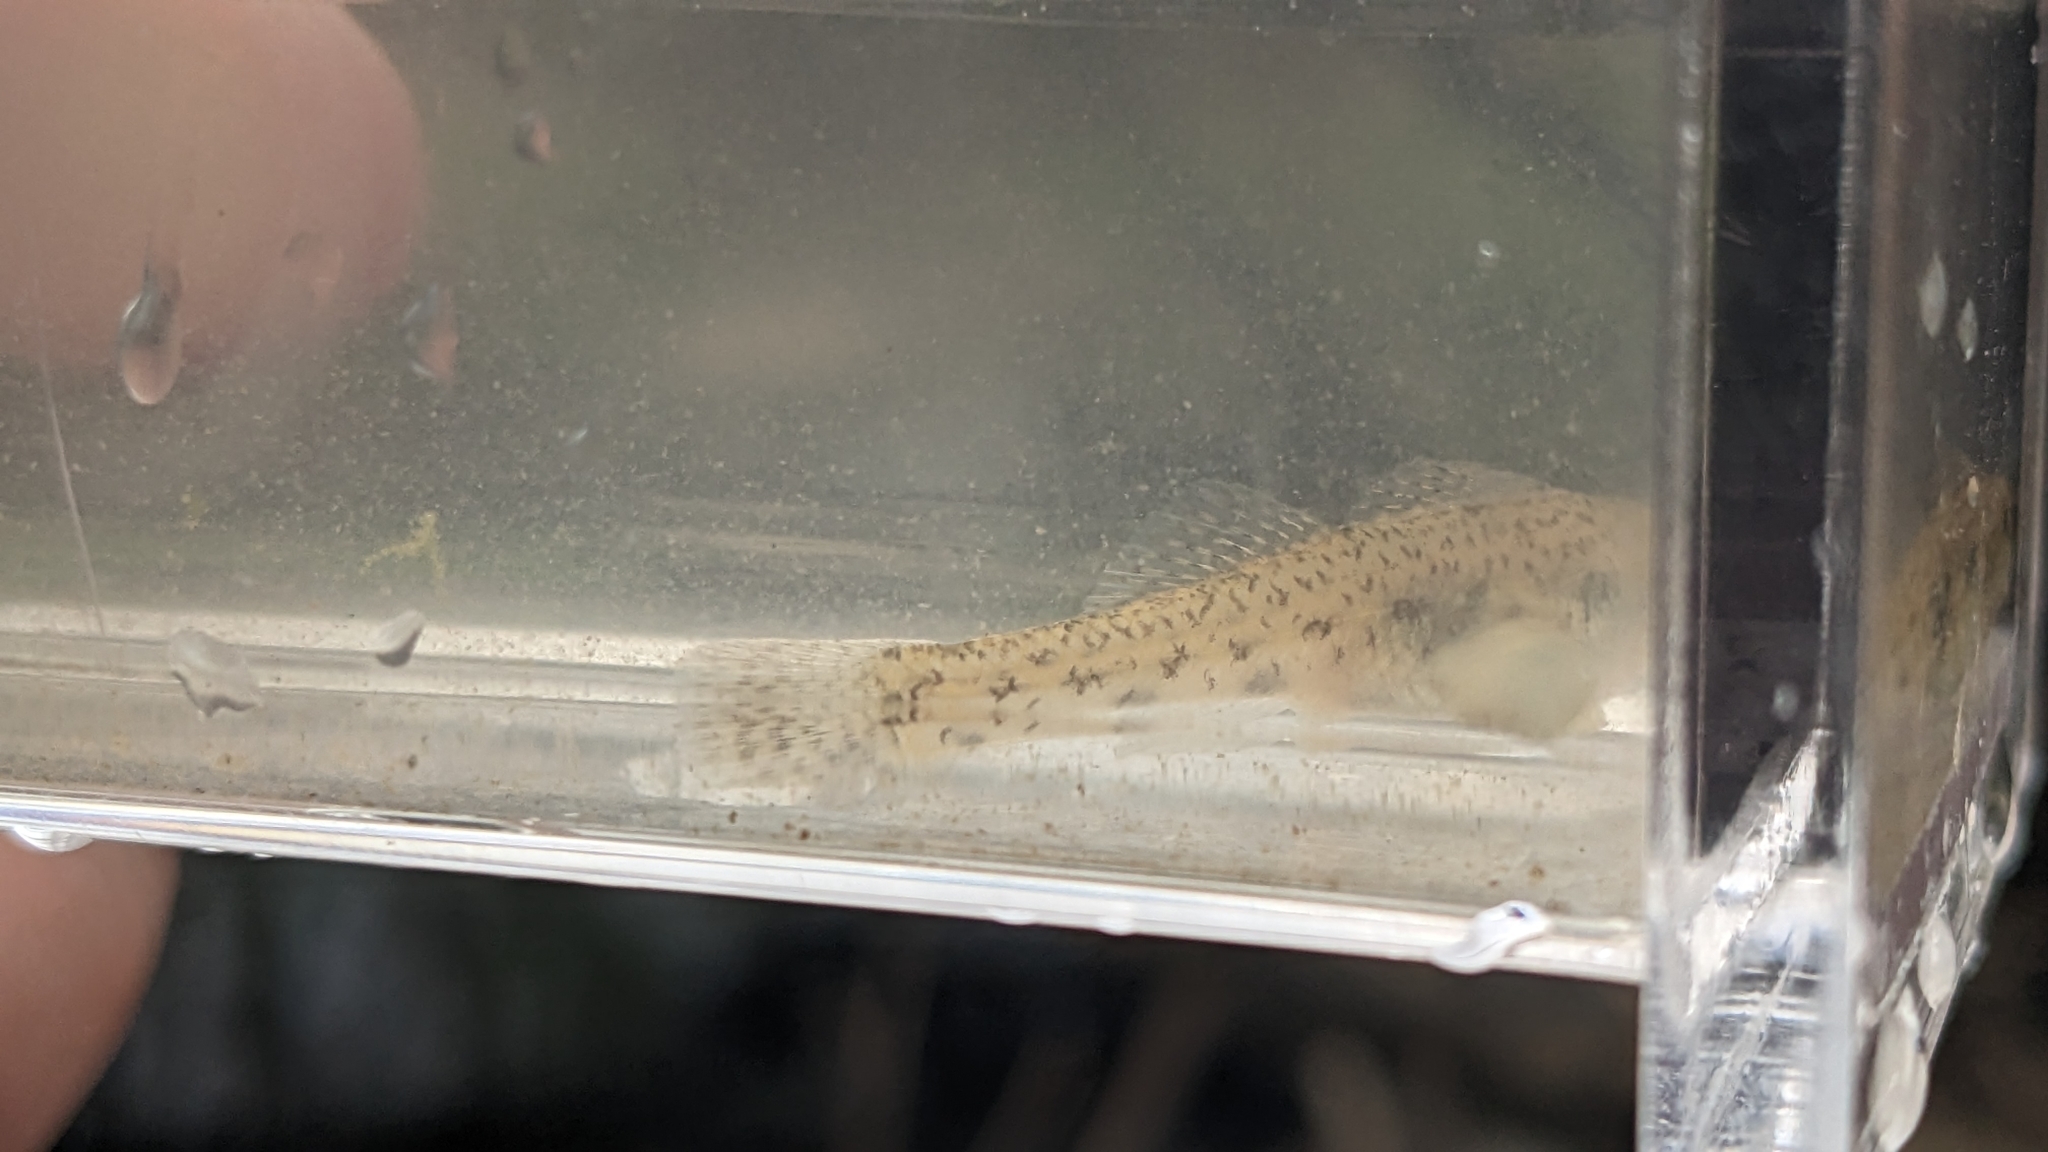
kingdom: Animalia
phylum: Chordata
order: Perciformes
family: Percidae
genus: Etheostoma
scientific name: Etheostoma nigrum
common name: Johnny darter
